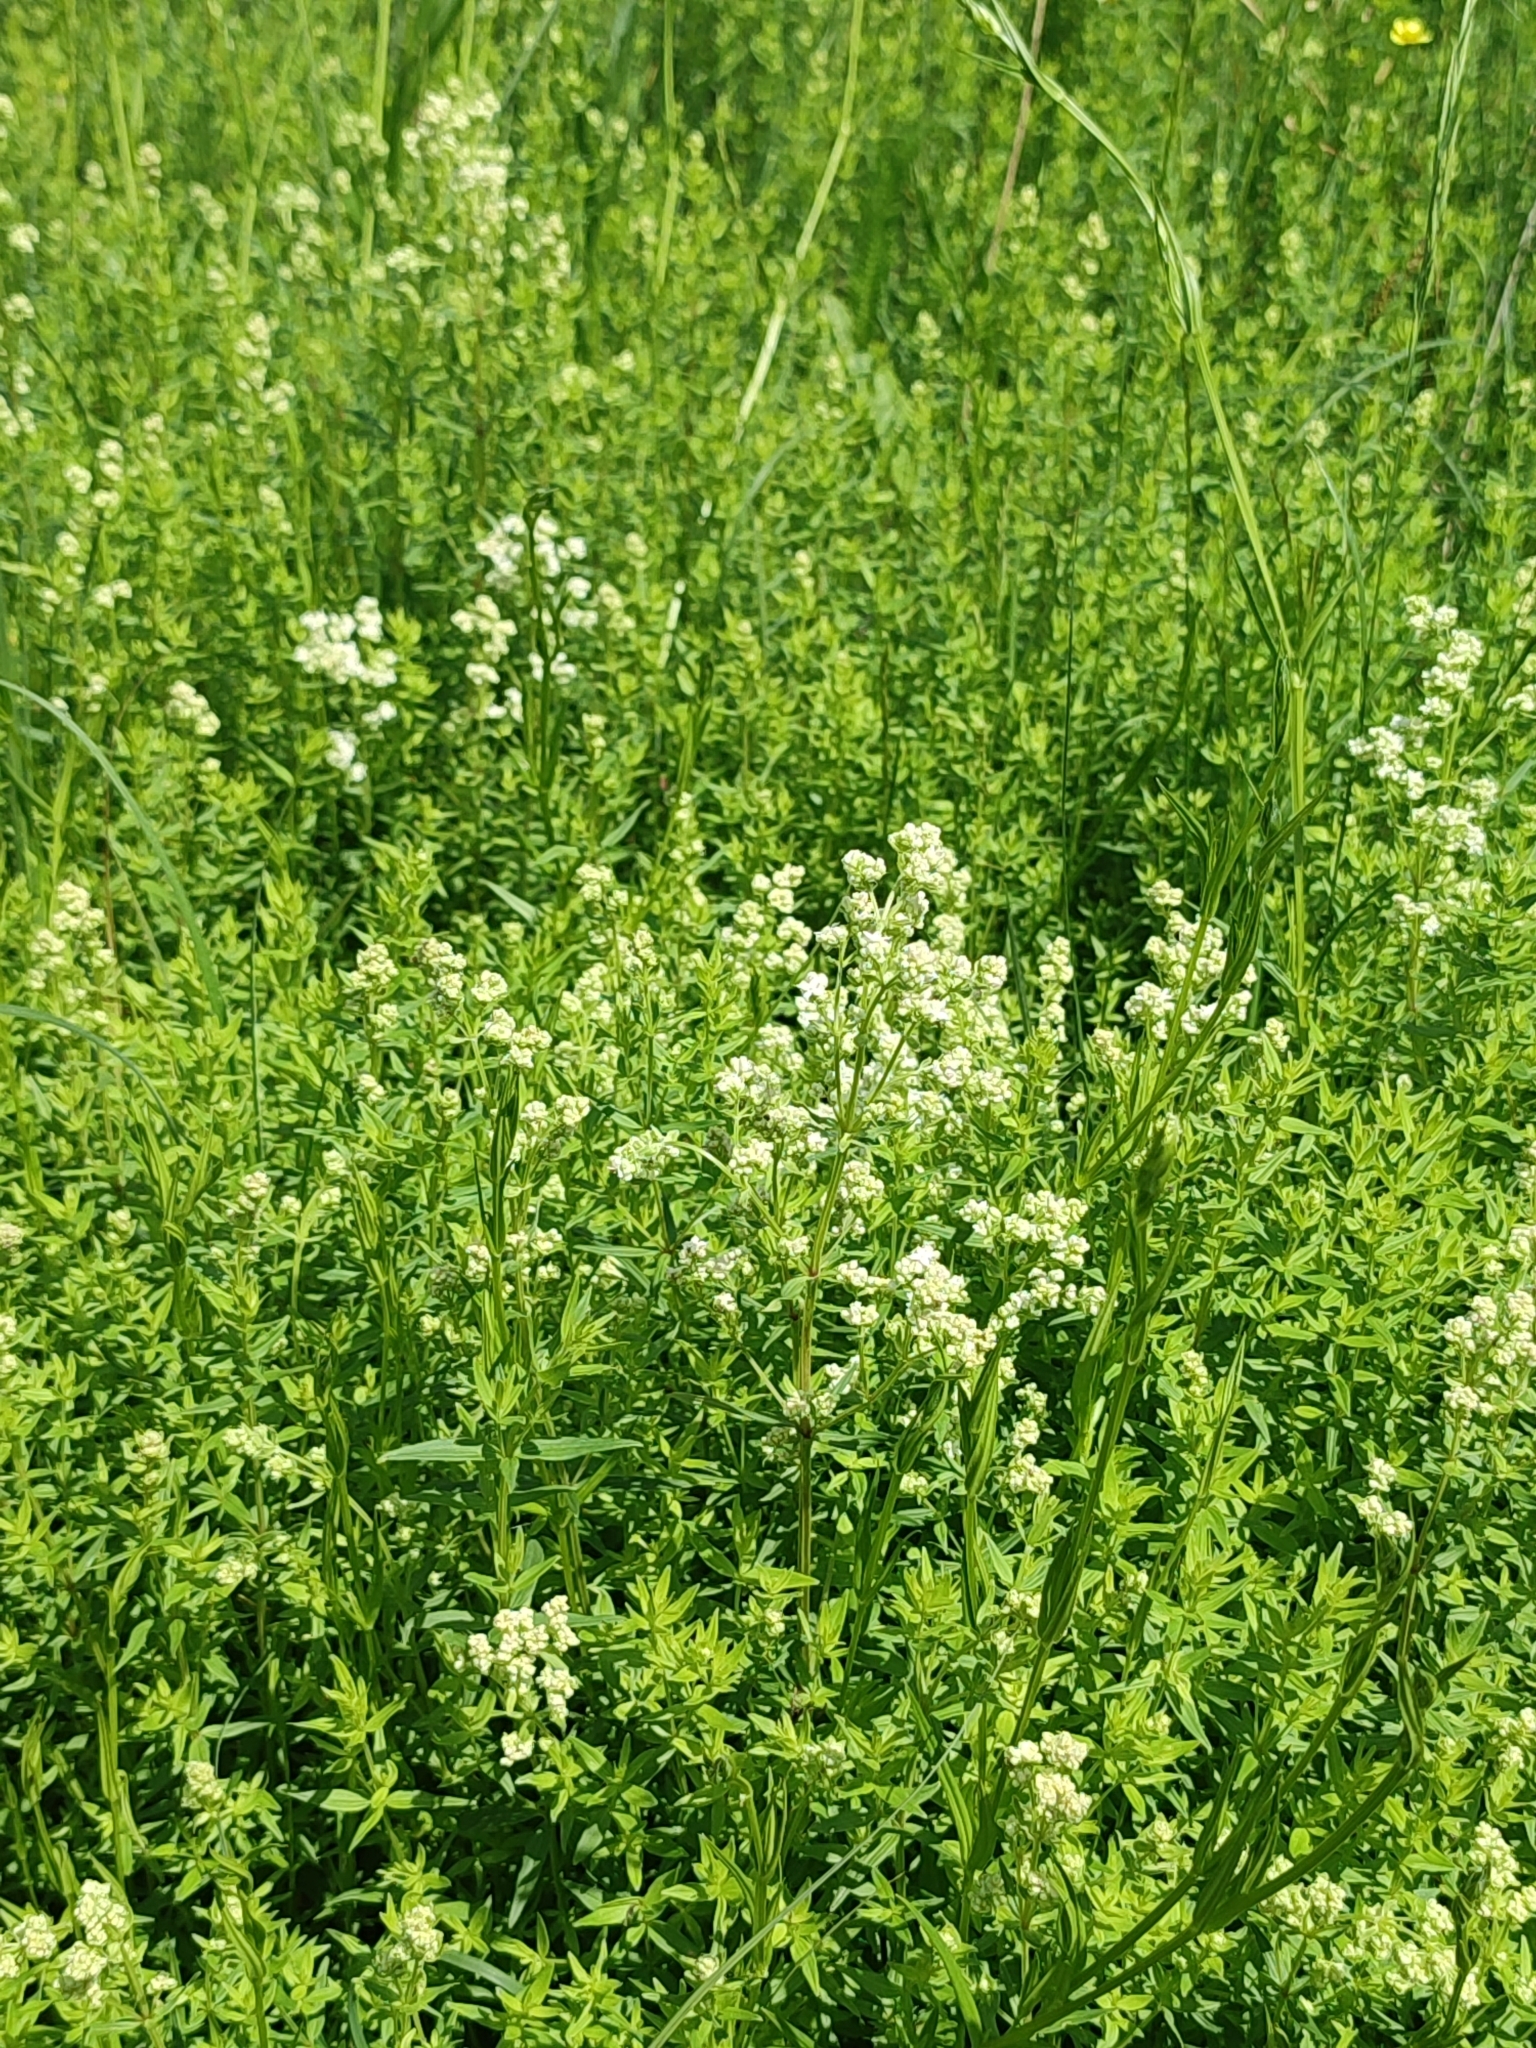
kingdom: Plantae
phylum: Tracheophyta
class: Magnoliopsida
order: Gentianales
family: Rubiaceae
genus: Galium
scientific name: Galium boreale
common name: Northern bedstraw
